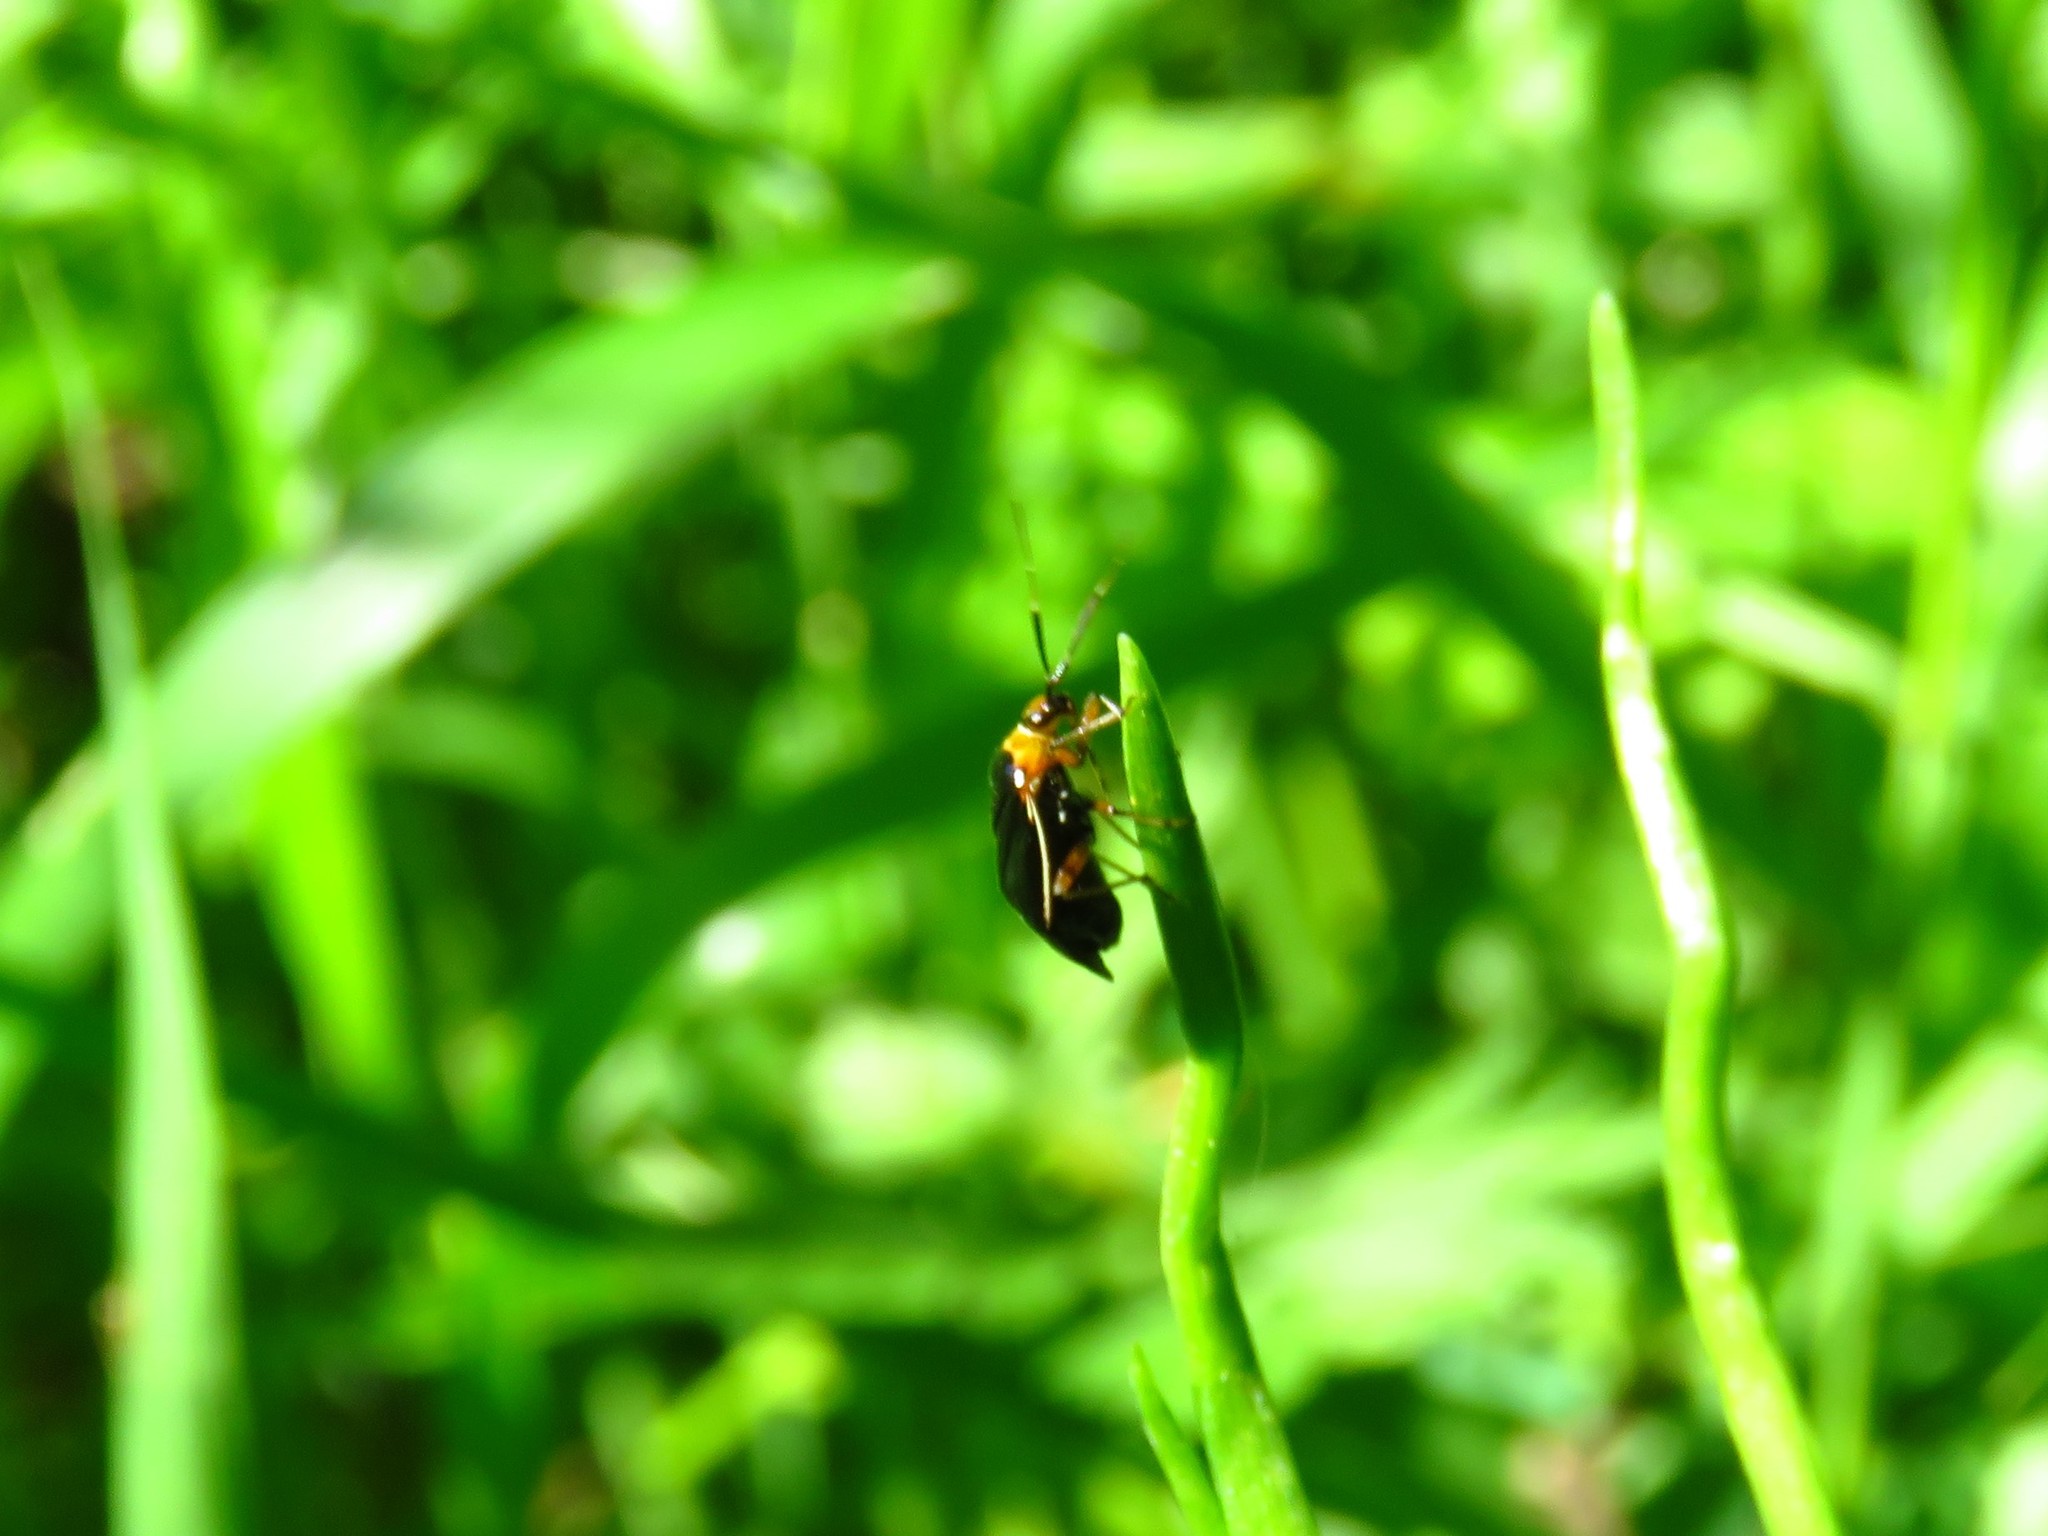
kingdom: Animalia
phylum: Arthropoda
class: Insecta
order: Hemiptera
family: Miridae
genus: Metriorrhynchomiris
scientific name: Metriorrhynchomiris dislocatus
